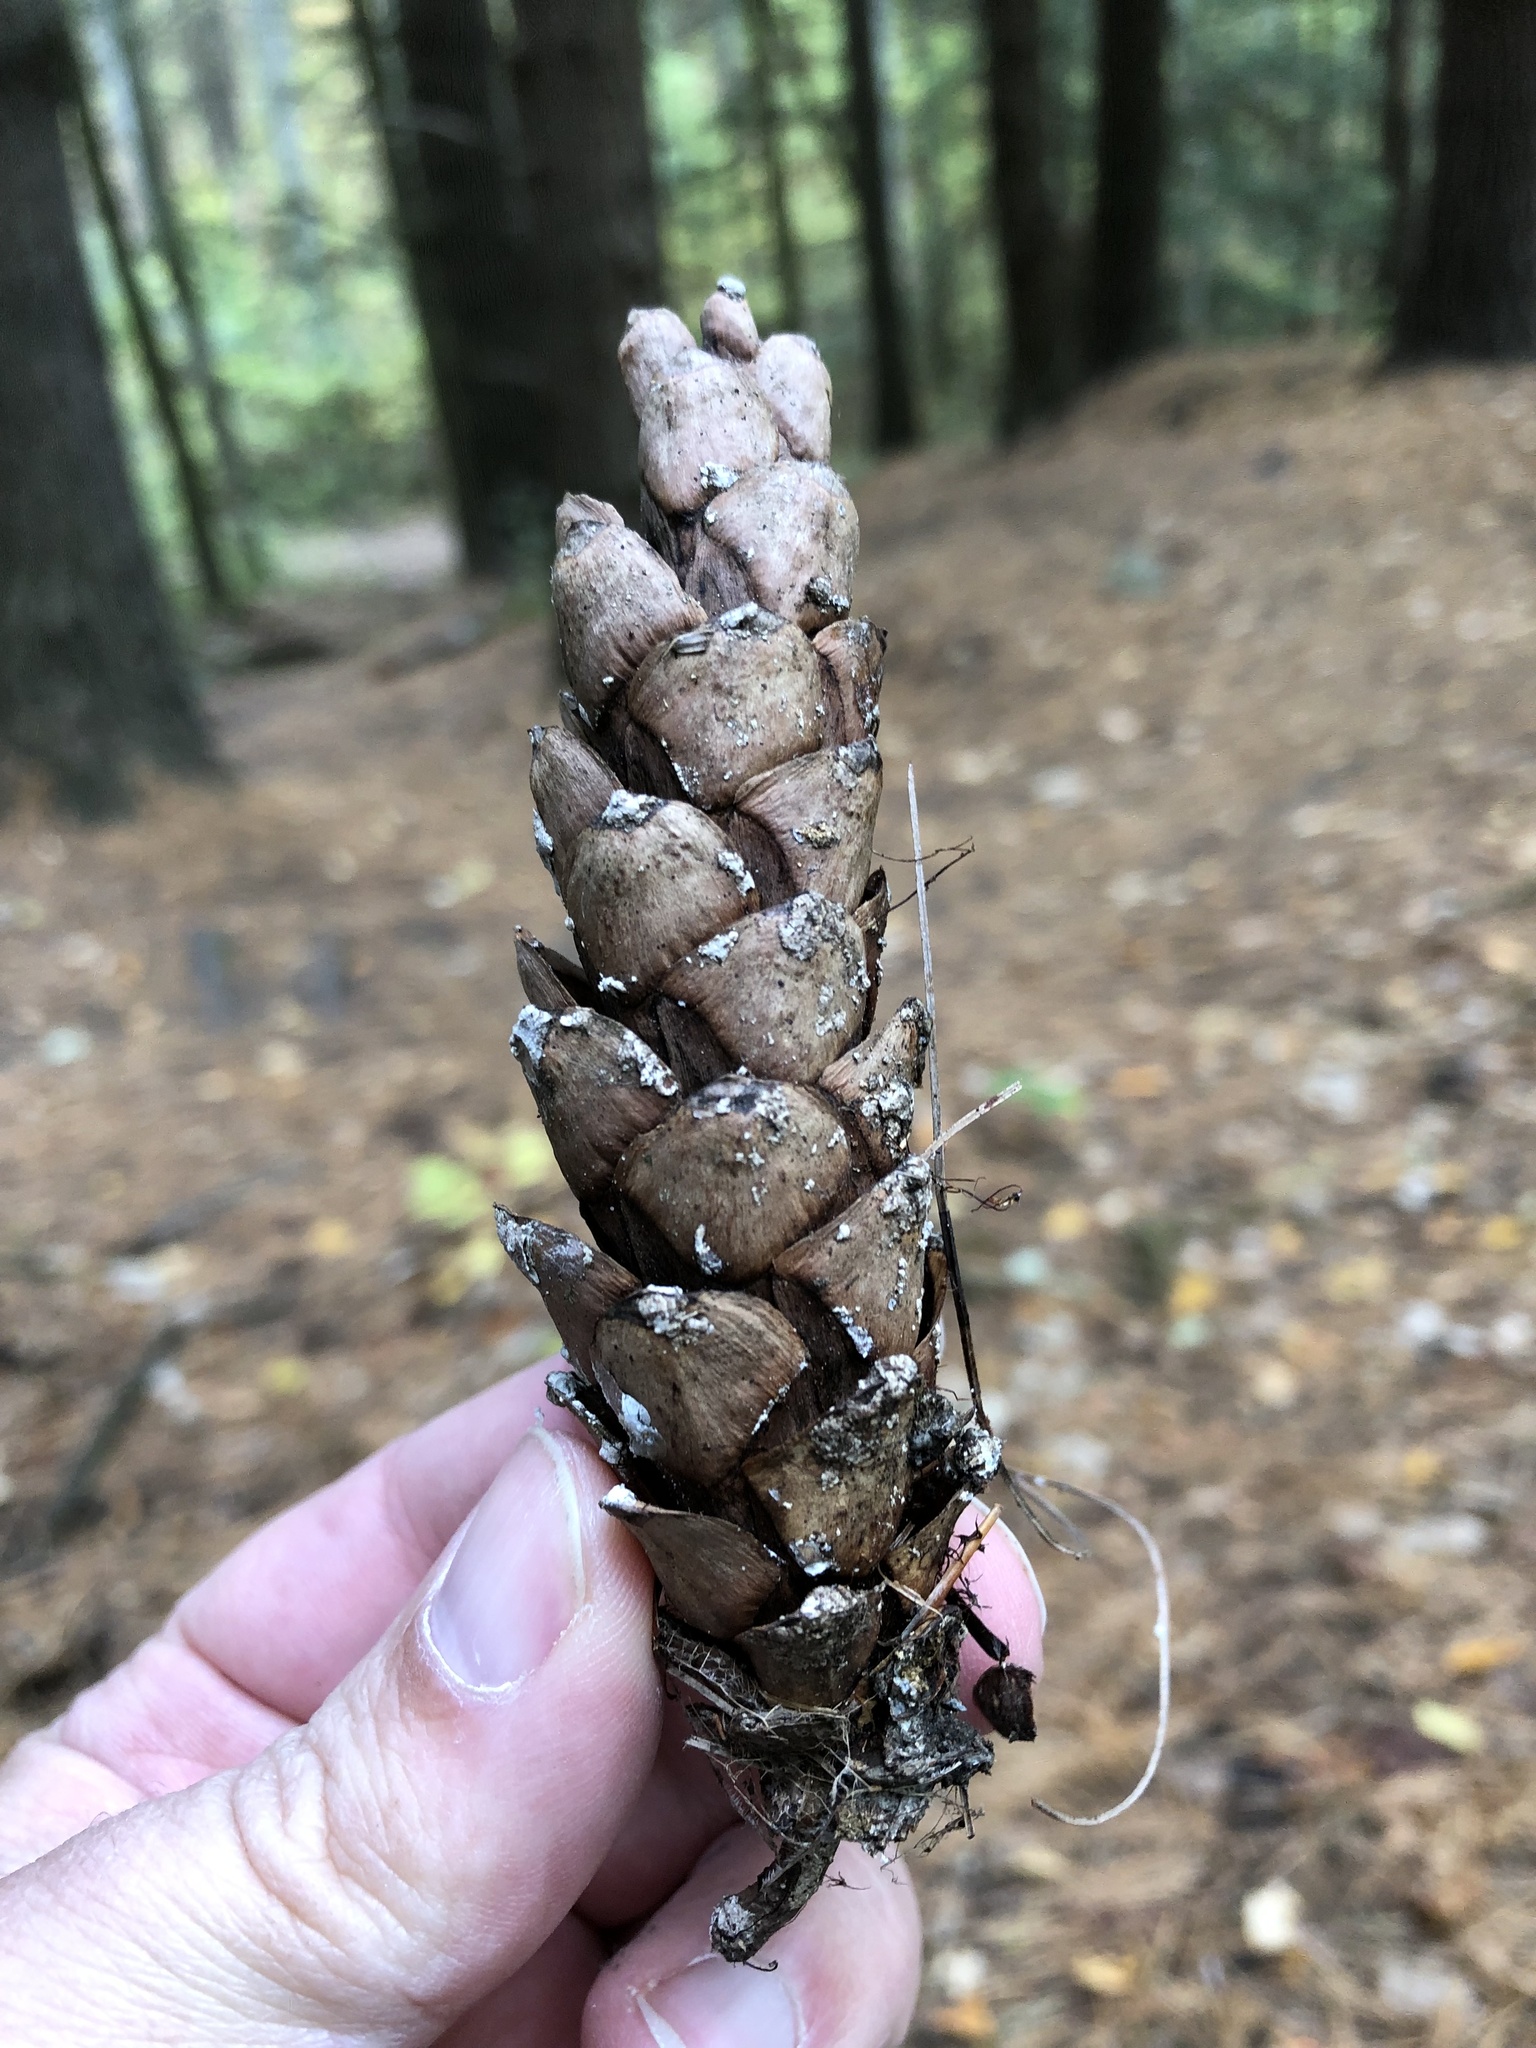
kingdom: Plantae
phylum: Tracheophyta
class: Pinopsida
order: Pinales
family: Pinaceae
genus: Pinus
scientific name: Pinus strobus
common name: Weymouth pine
